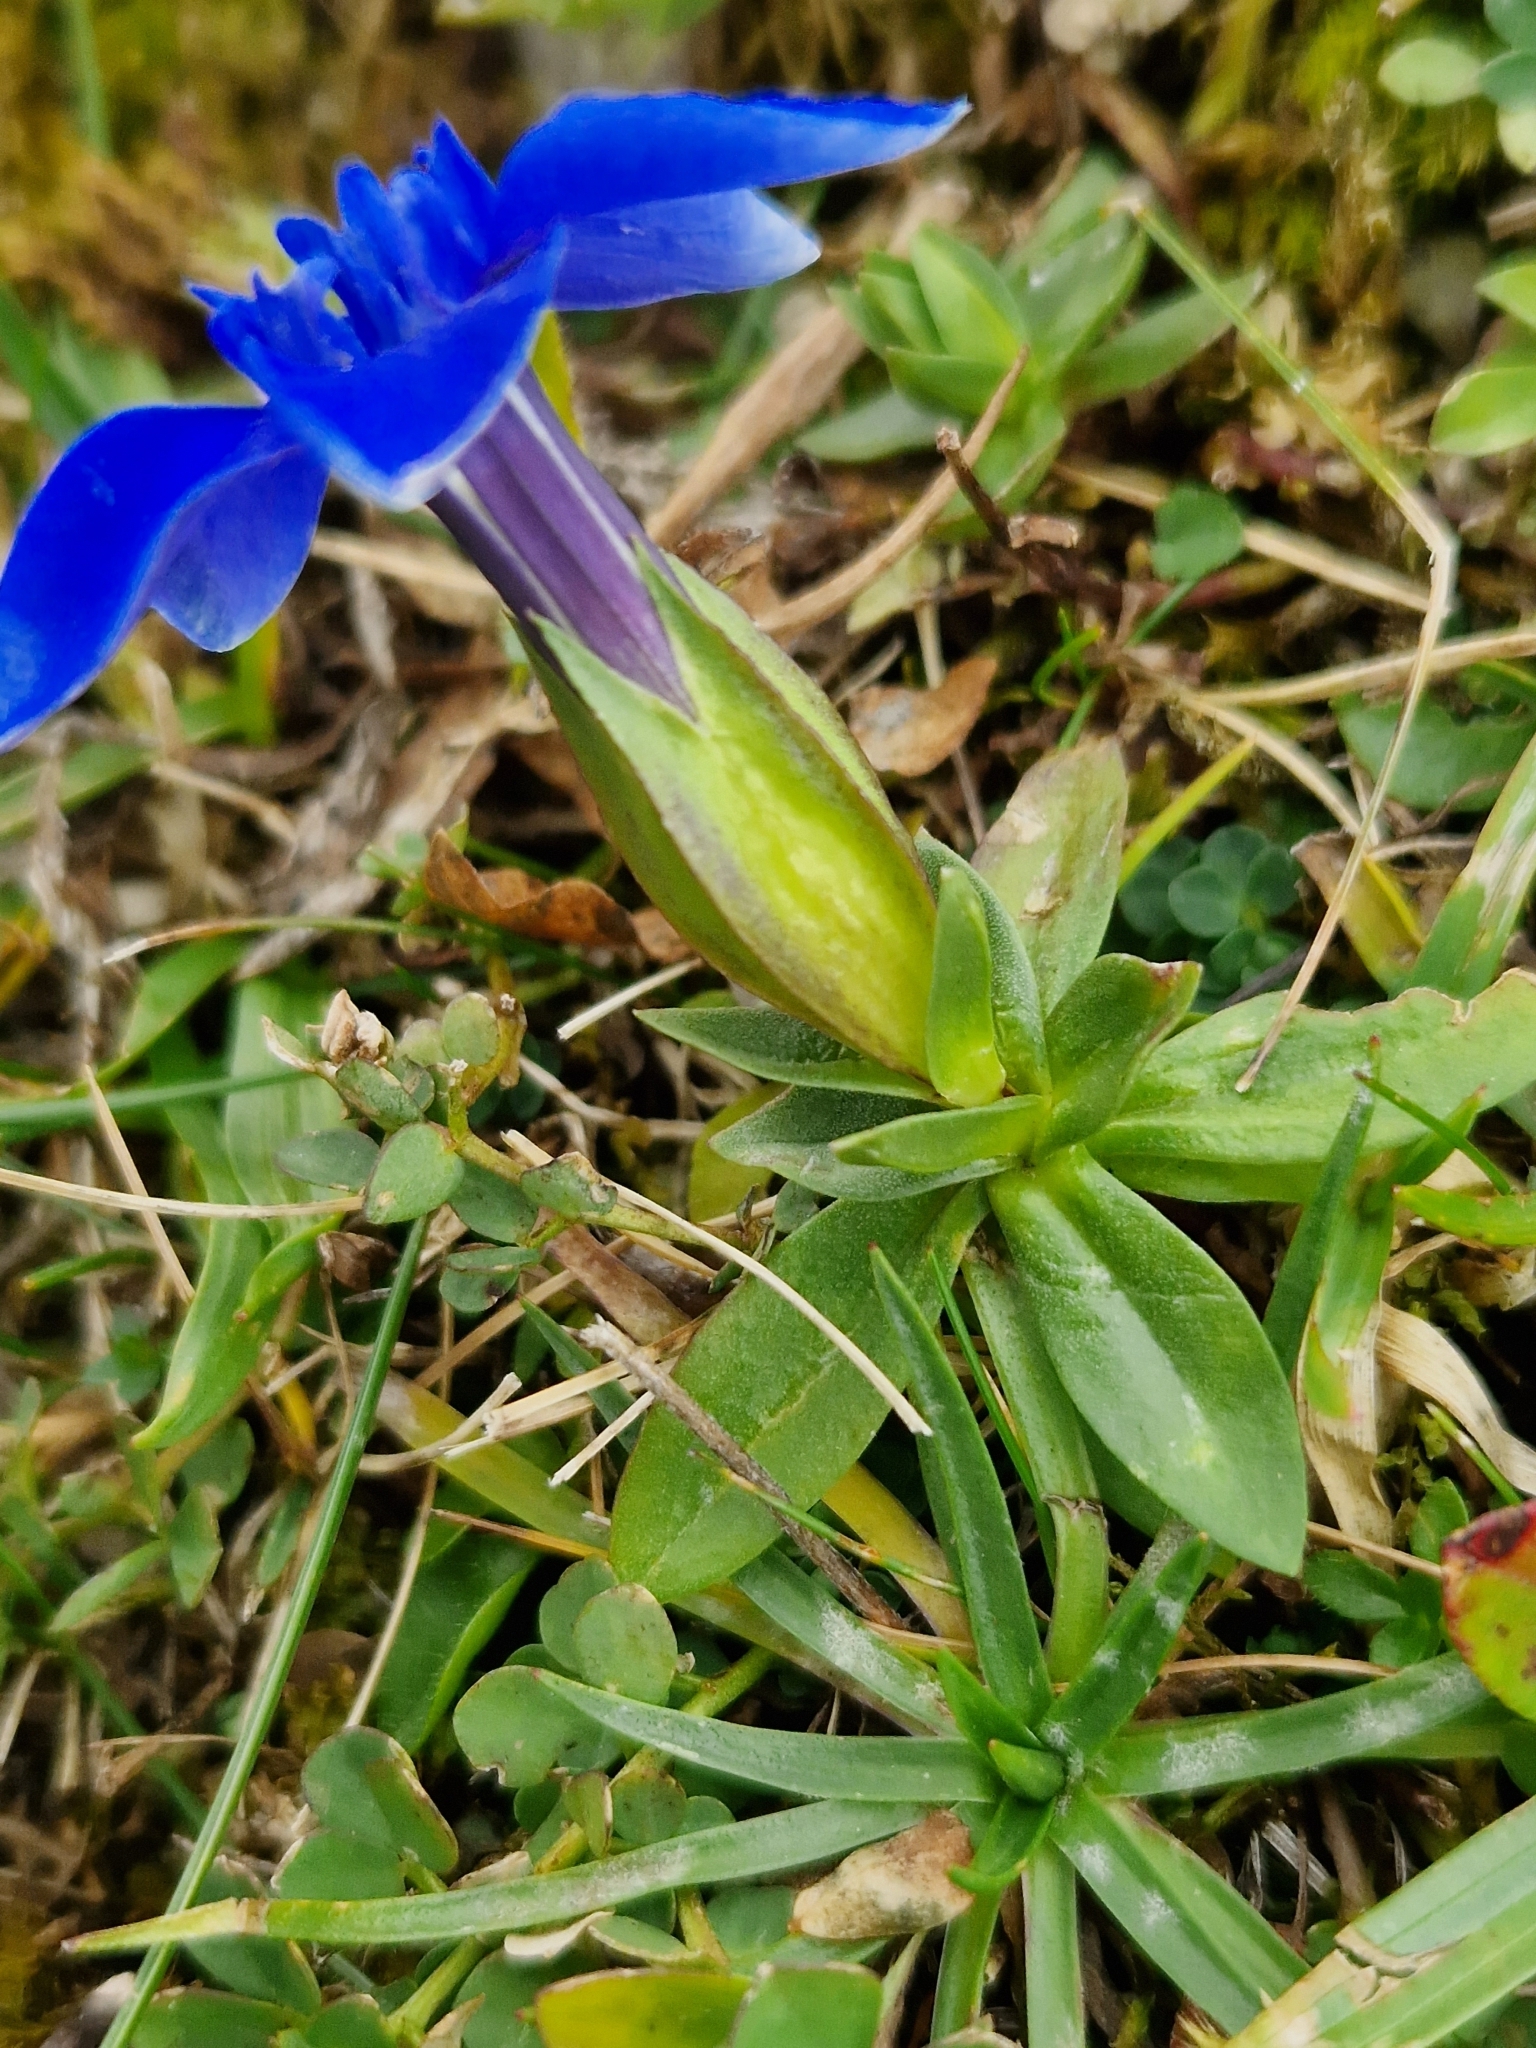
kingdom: Plantae
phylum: Tracheophyta
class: Magnoliopsida
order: Gentianales
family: Gentianaceae
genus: Gentiana
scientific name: Gentiana verna
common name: Spring gentian
